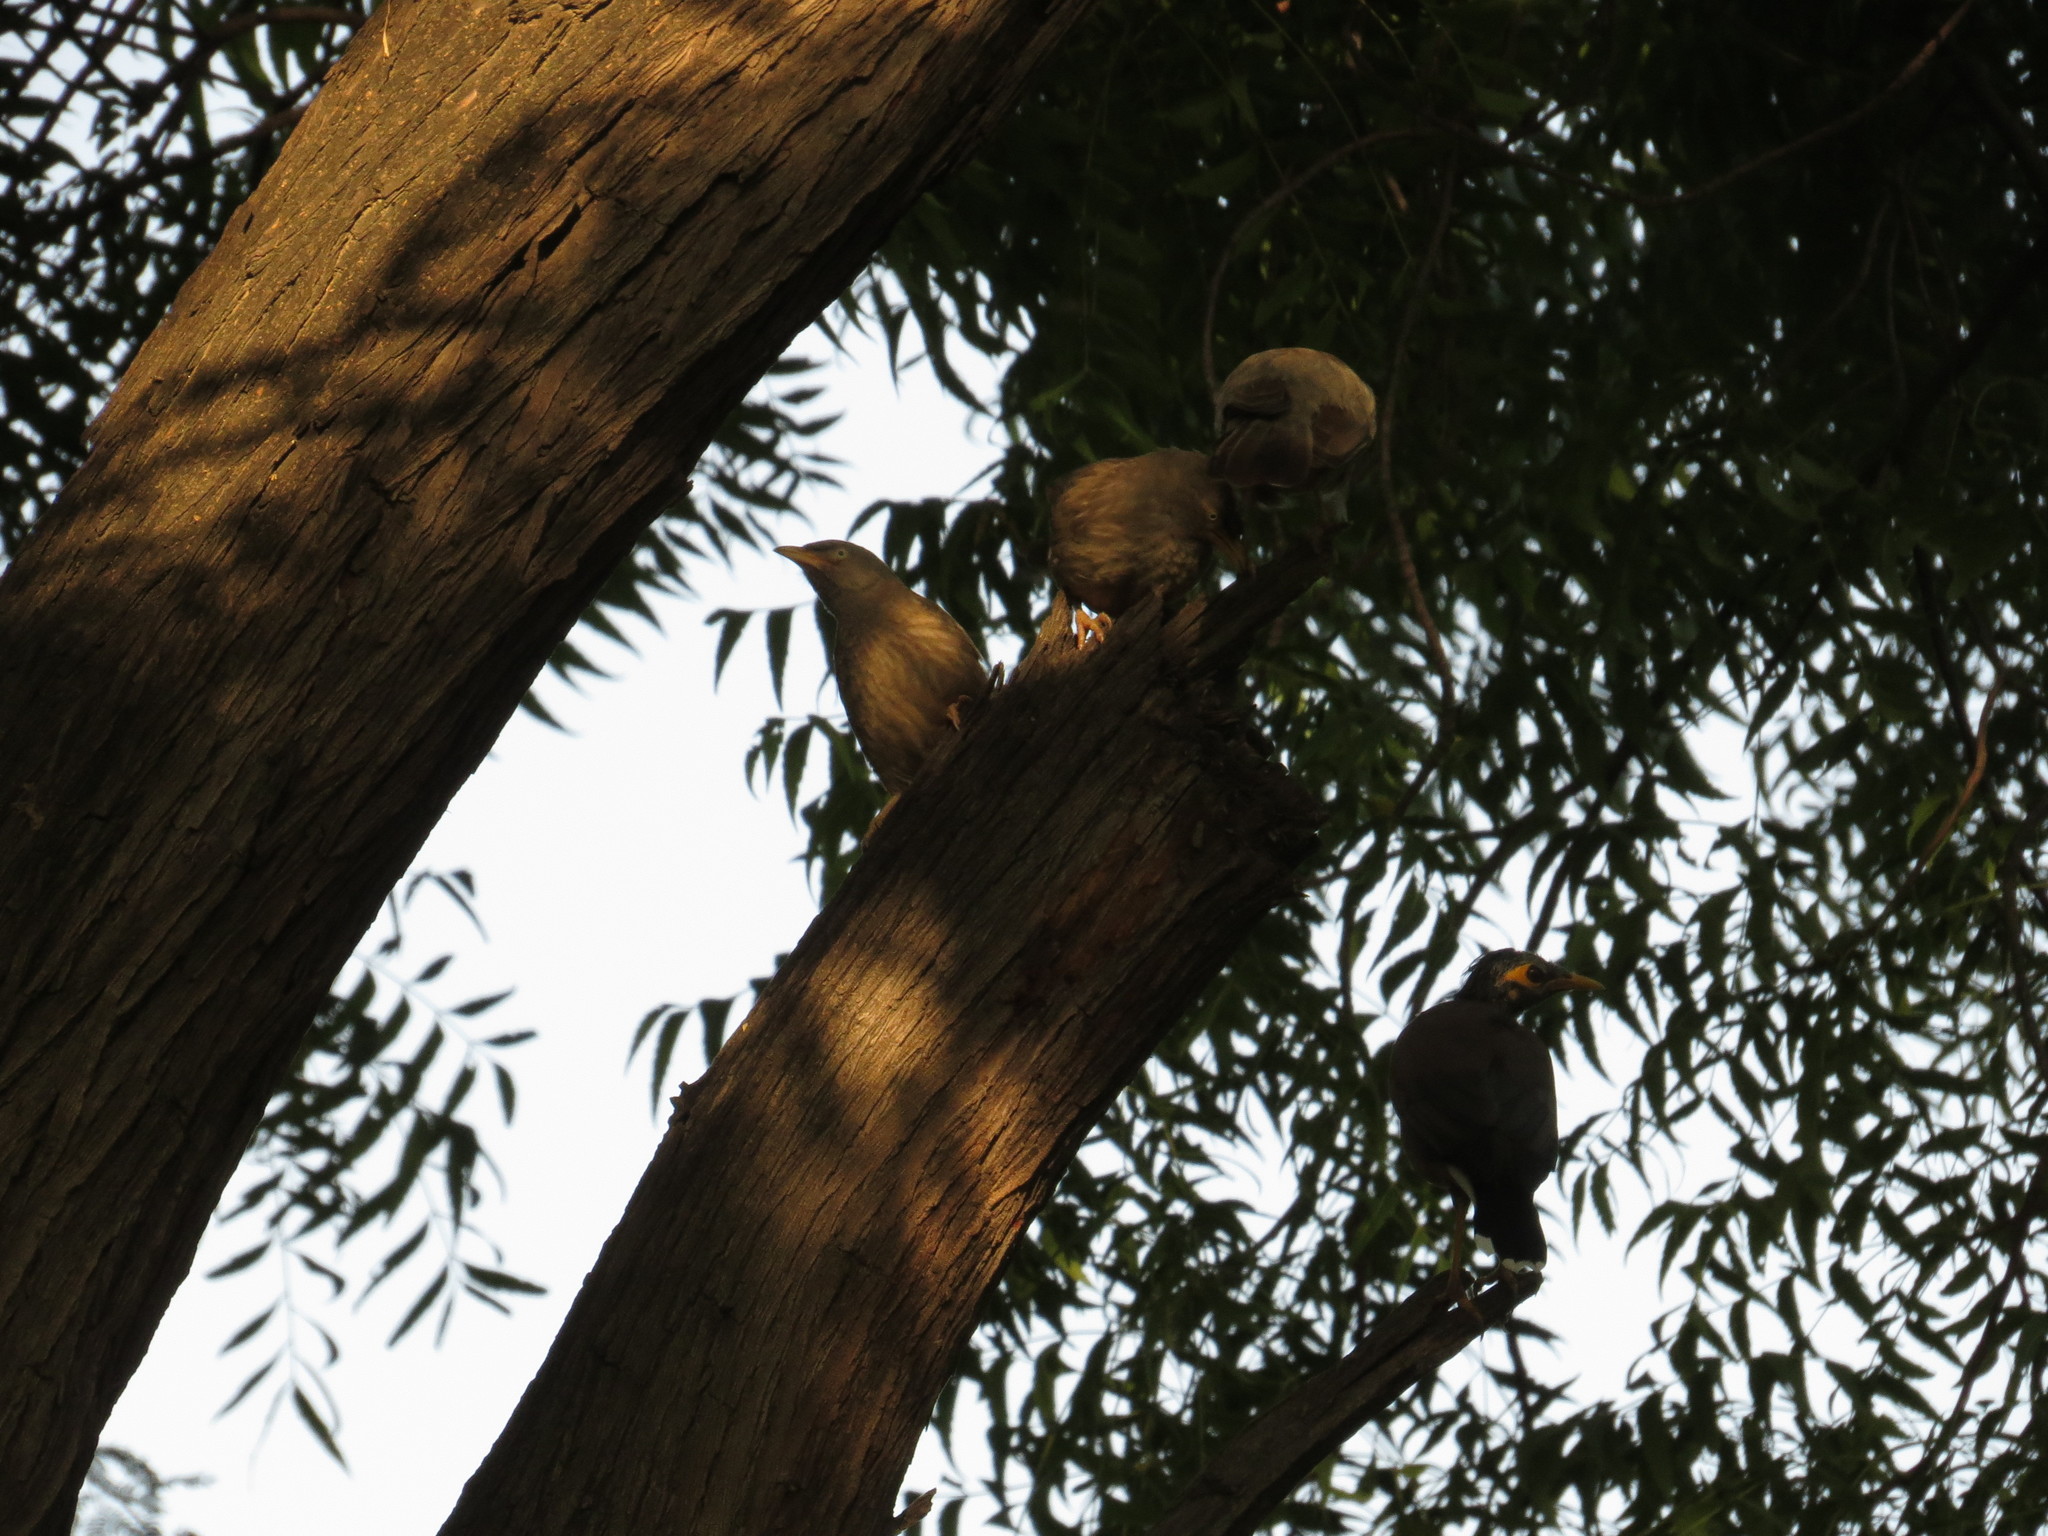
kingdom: Animalia
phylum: Chordata
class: Aves
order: Passeriformes
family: Sturnidae
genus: Acridotheres
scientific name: Acridotheres tristis
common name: Common myna
